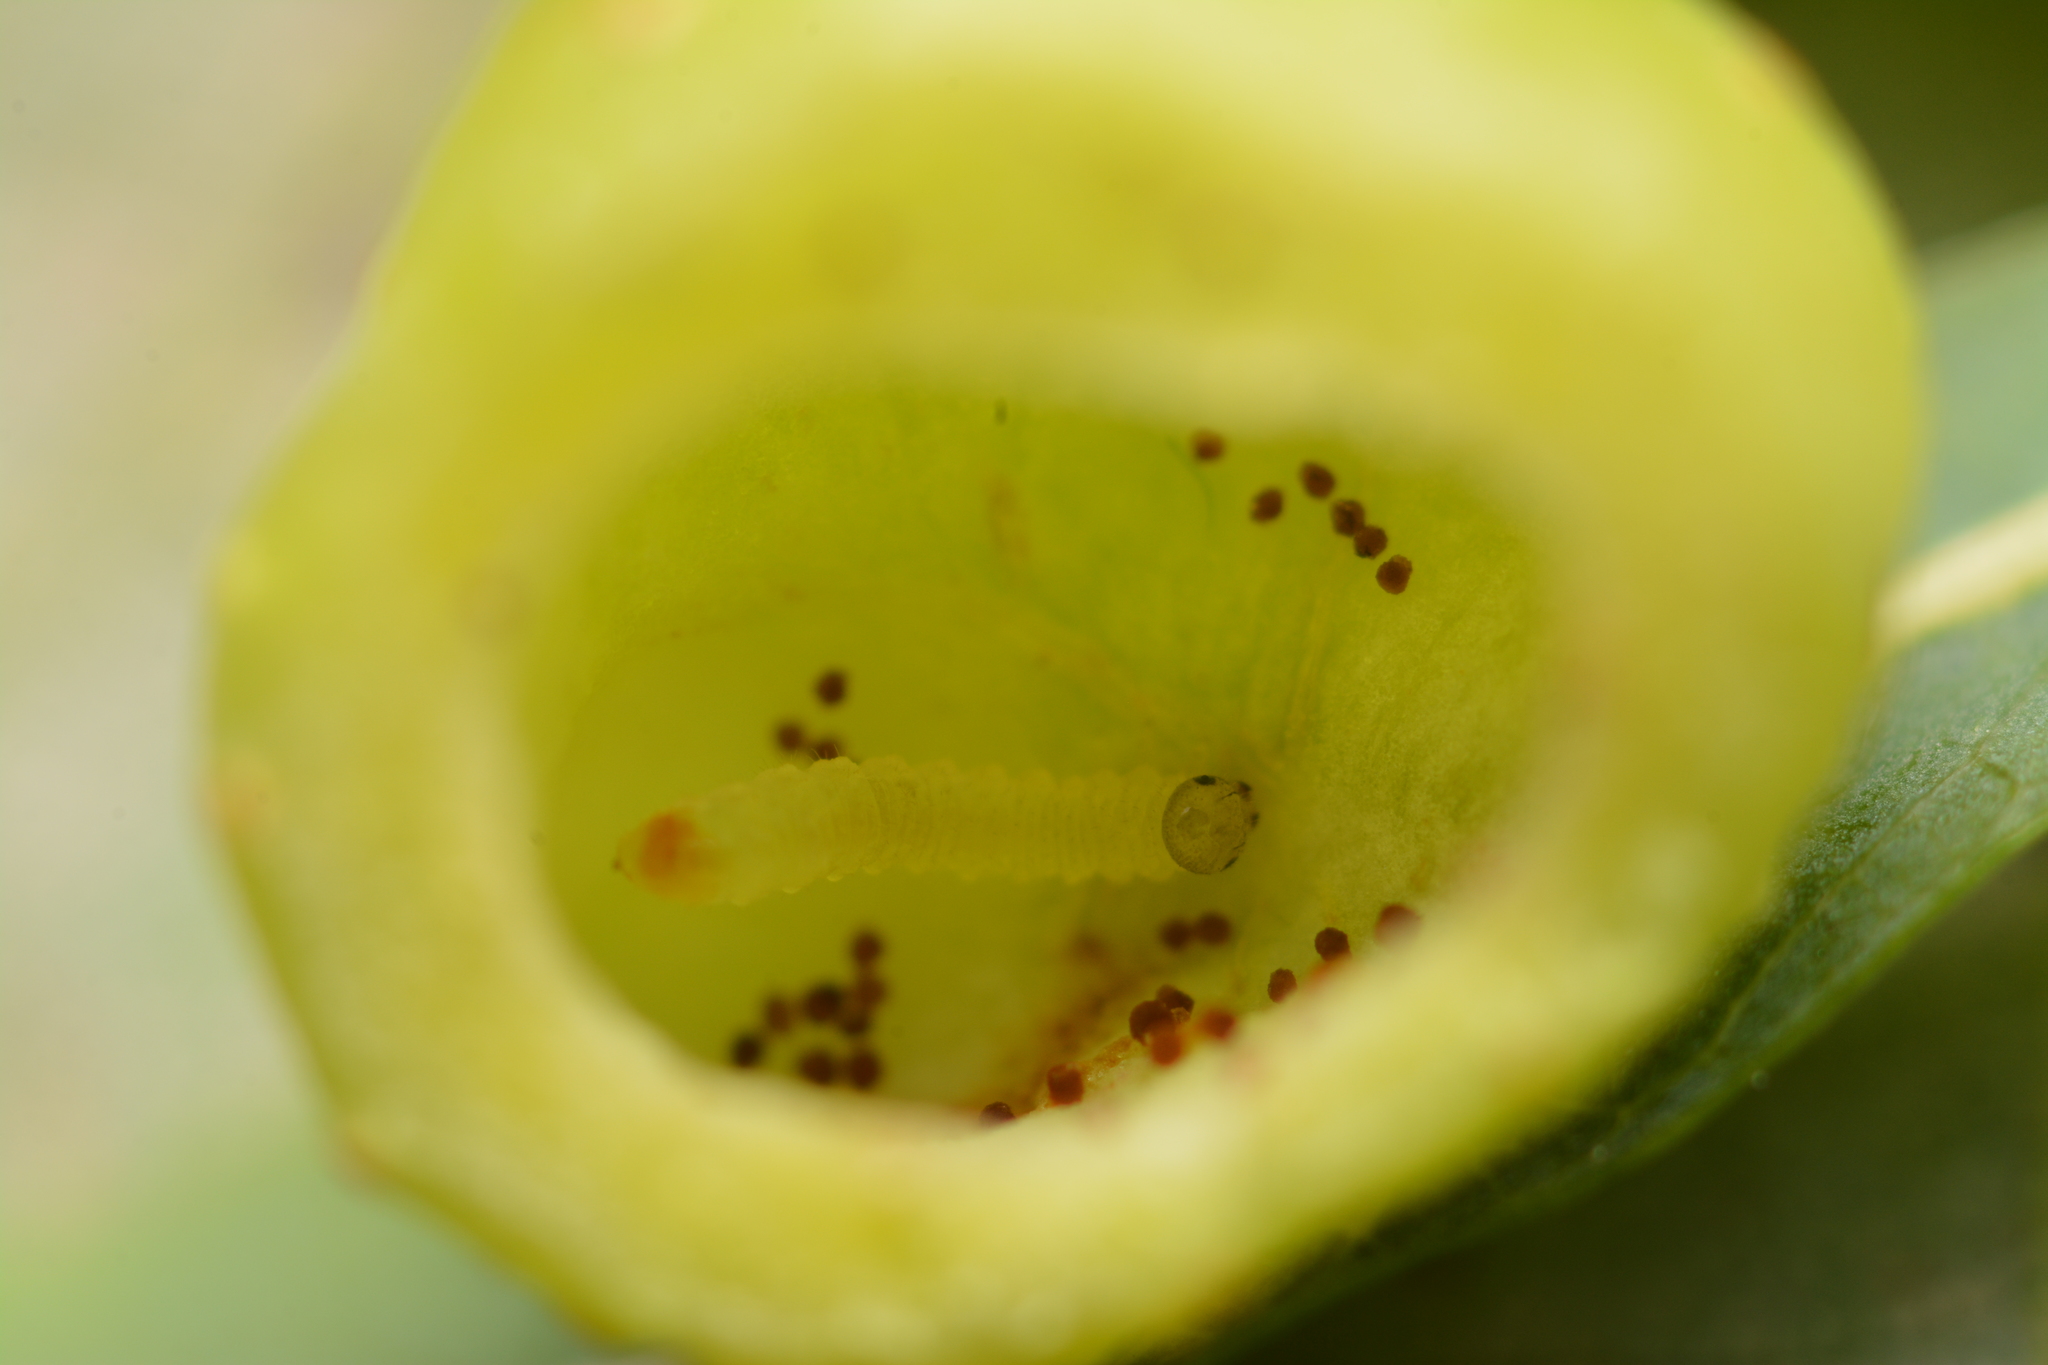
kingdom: Animalia
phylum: Arthropoda
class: Insecta
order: Hymenoptera
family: Tenthredinidae
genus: Euura
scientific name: Euura viminalis
